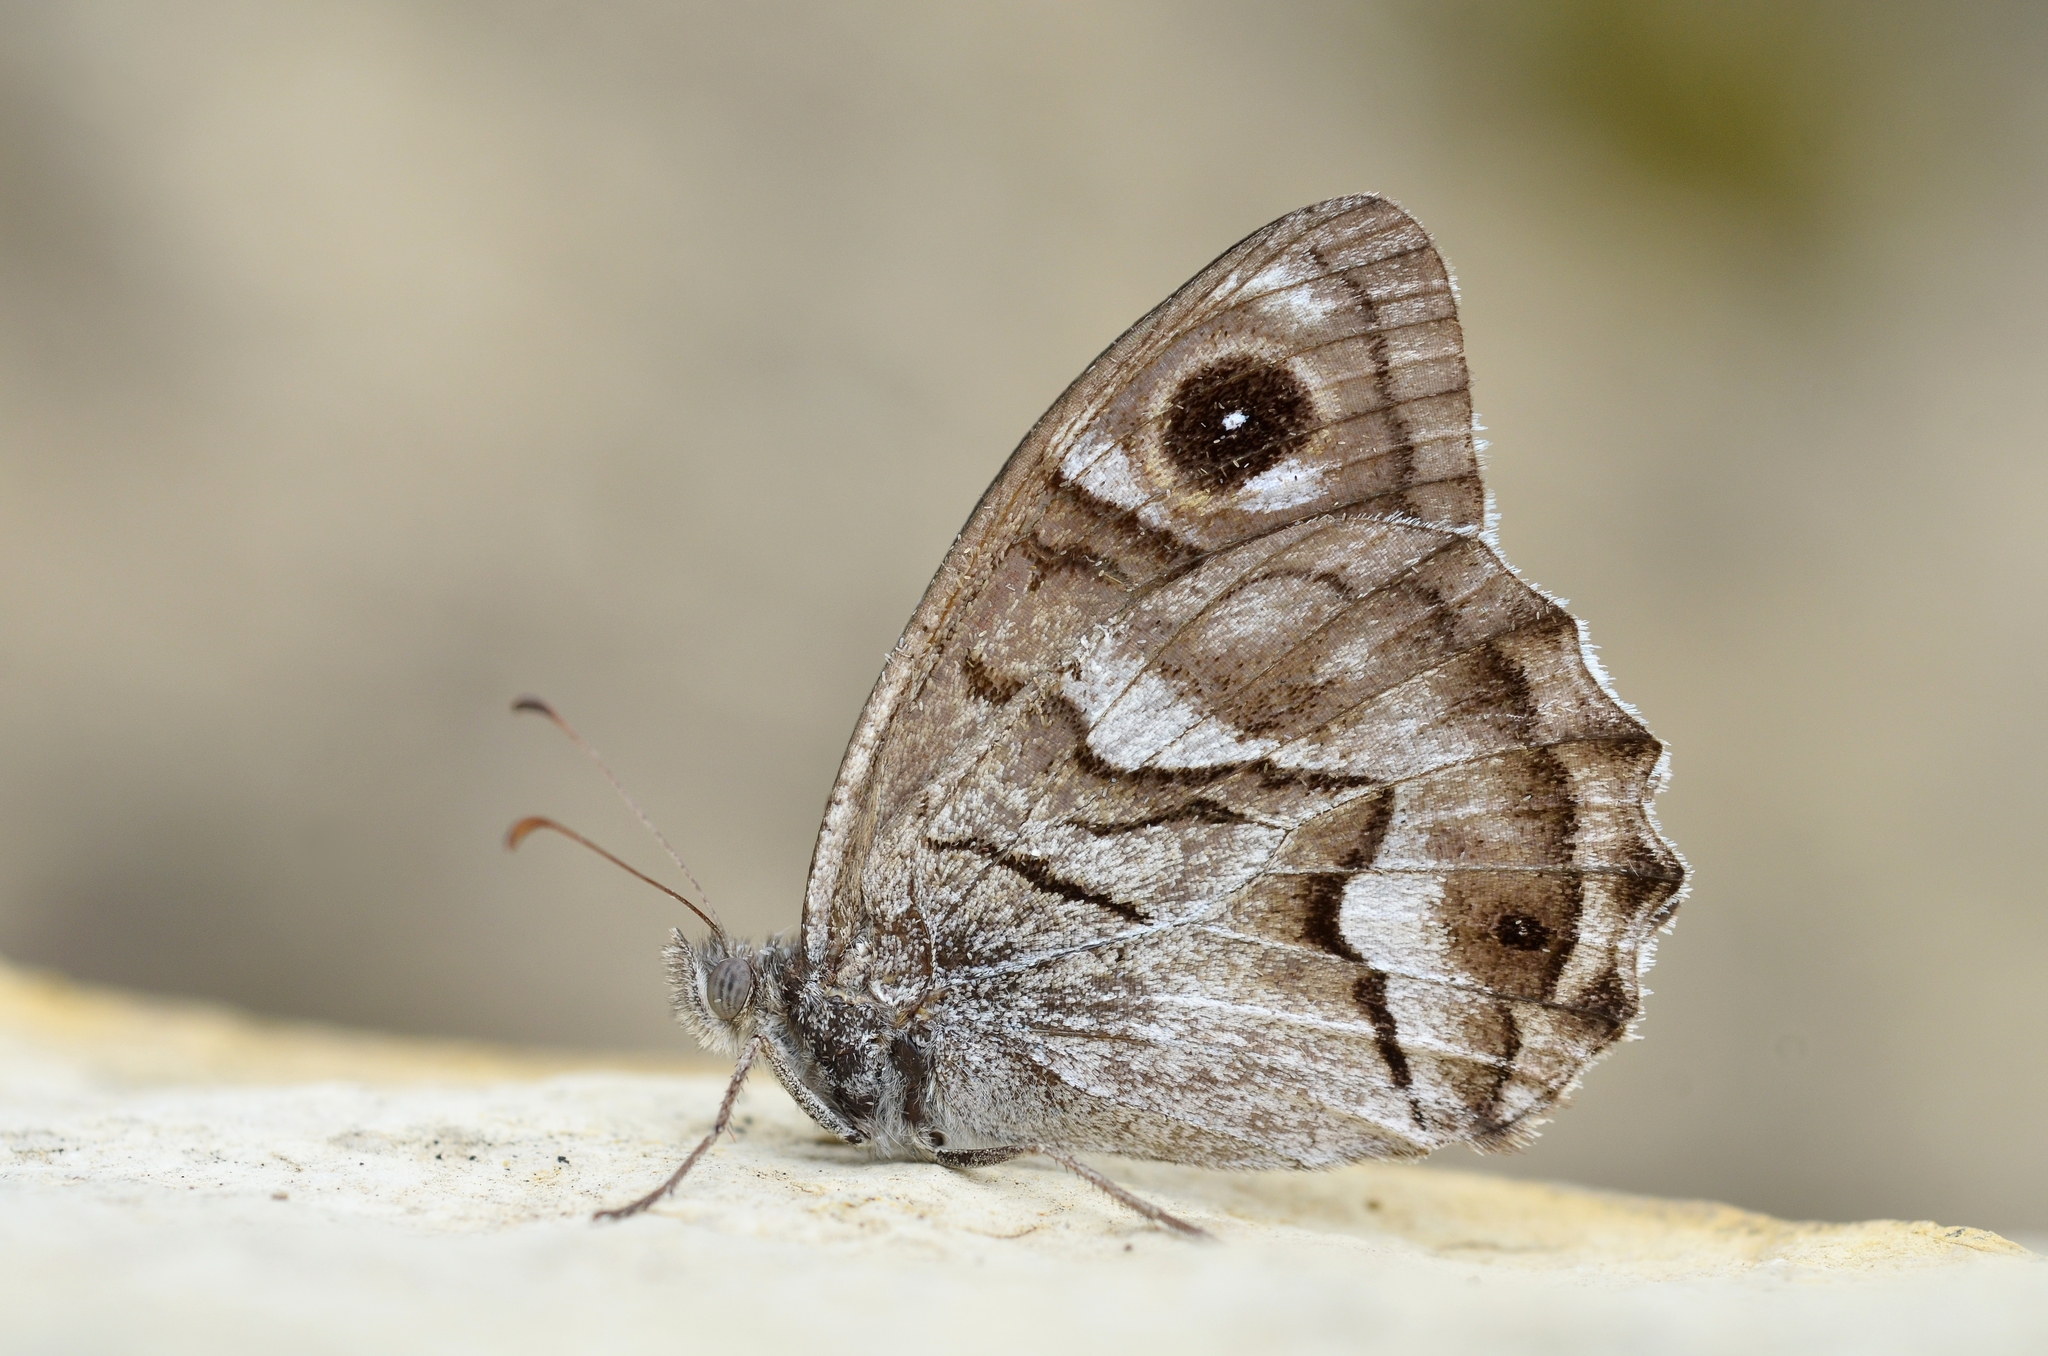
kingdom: Animalia
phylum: Arthropoda
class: Insecta
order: Lepidoptera
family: Nymphalidae
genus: Hipparchia
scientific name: Hipparchia fidia
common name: Striped grayling
